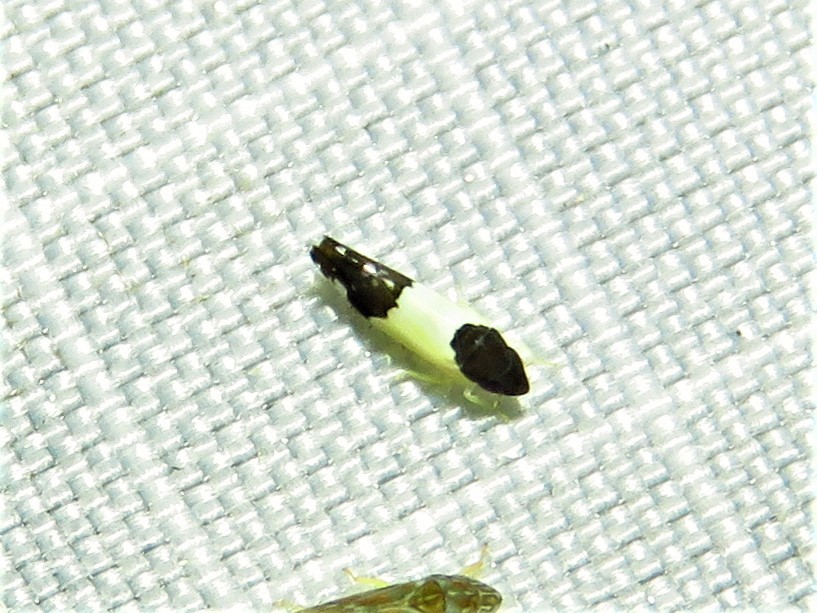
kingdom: Animalia
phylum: Arthropoda
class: Insecta
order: Hemiptera
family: Cicadellidae
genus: Henribautia
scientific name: Henribautia nigricephala
